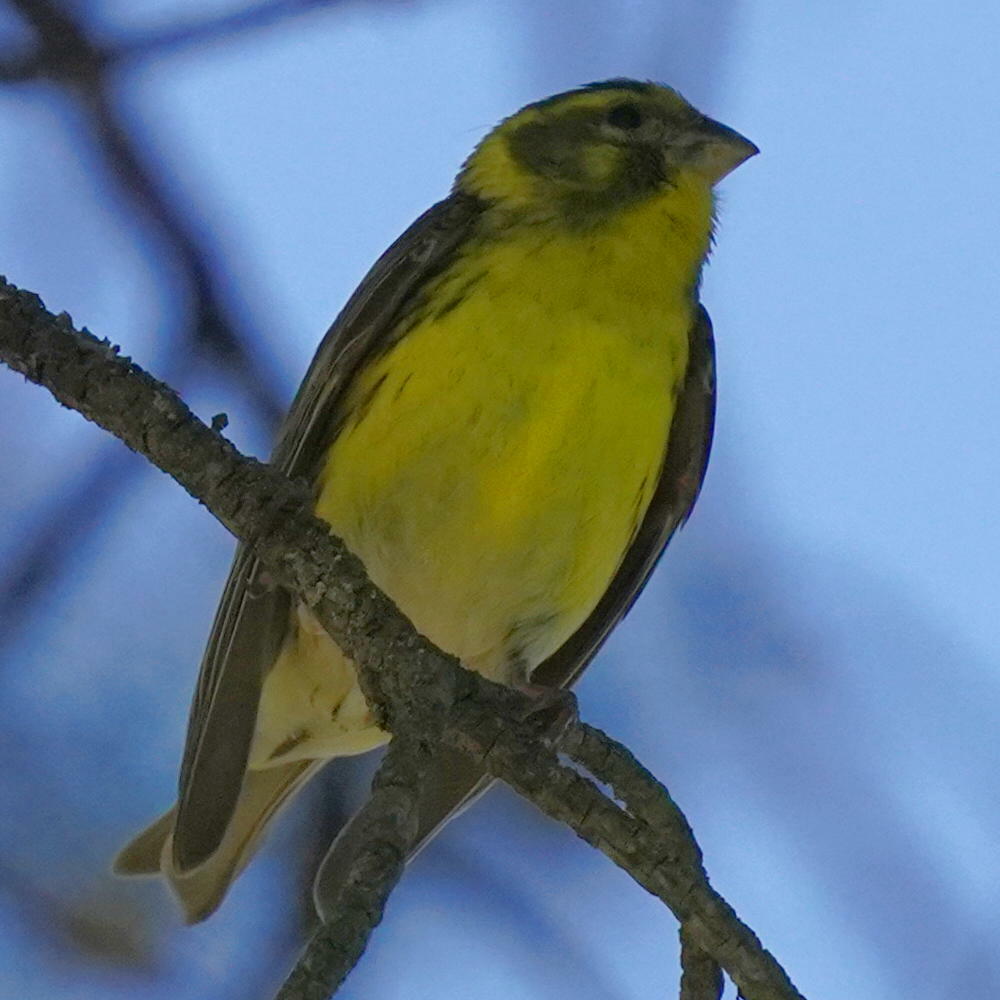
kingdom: Animalia
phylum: Chordata
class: Aves
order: Passeriformes
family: Fringillidae
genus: Serinus
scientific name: Serinus serinus
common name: European serin
